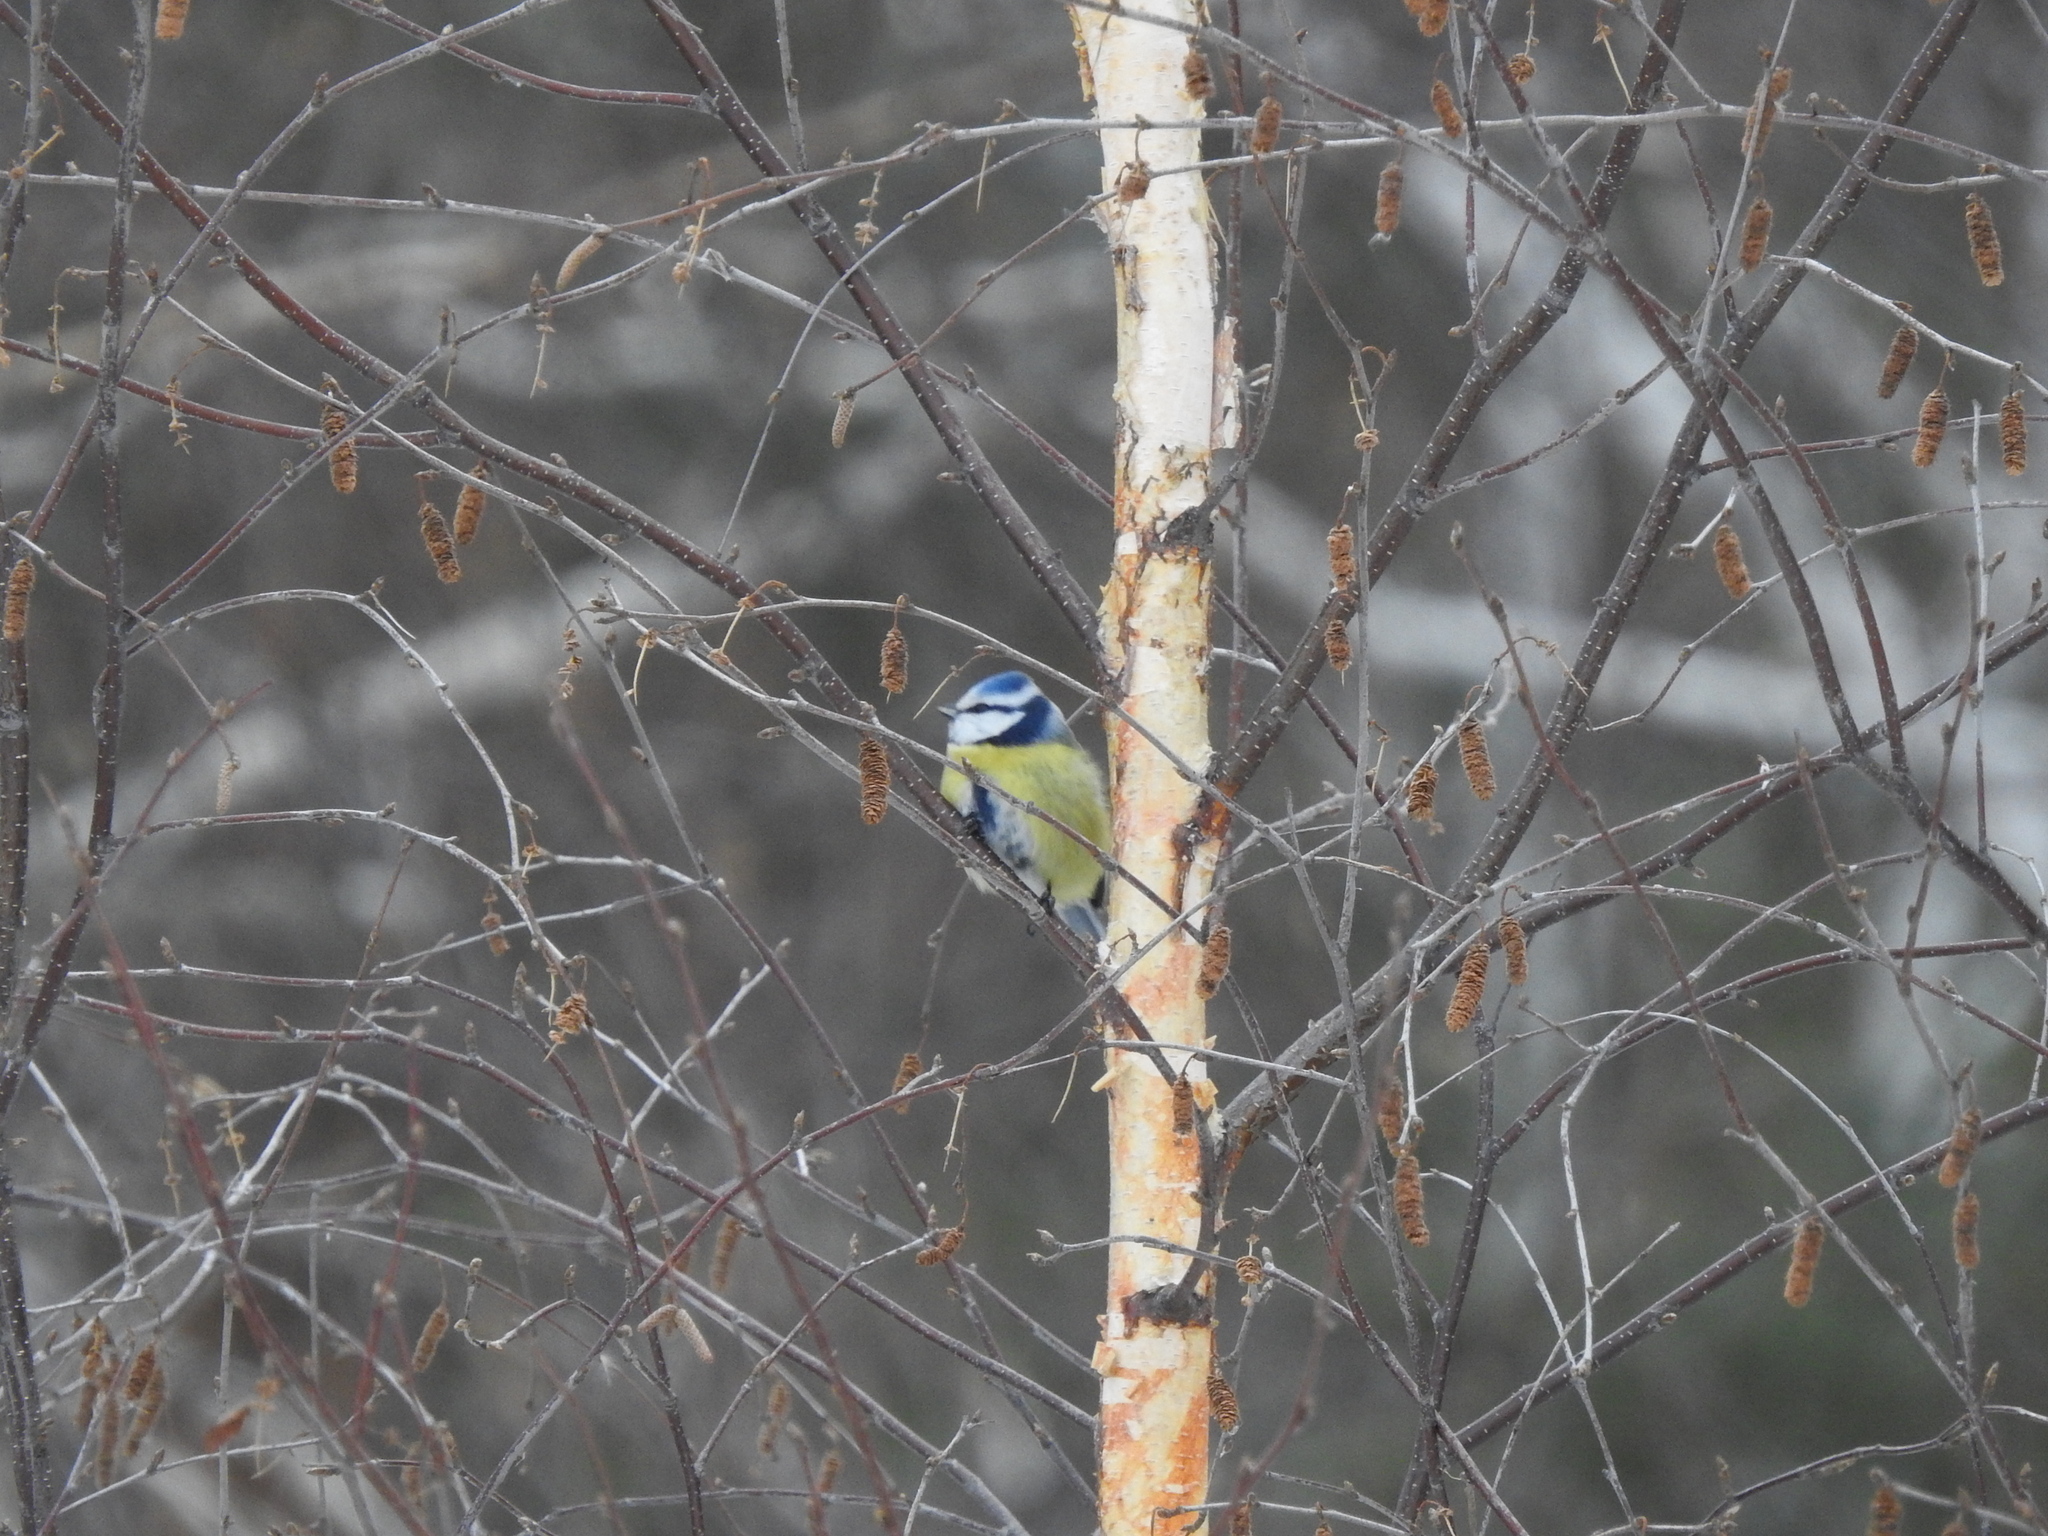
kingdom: Animalia
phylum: Chordata
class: Aves
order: Passeriformes
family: Paridae
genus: Cyanistes
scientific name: Cyanistes caeruleus
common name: Eurasian blue tit
